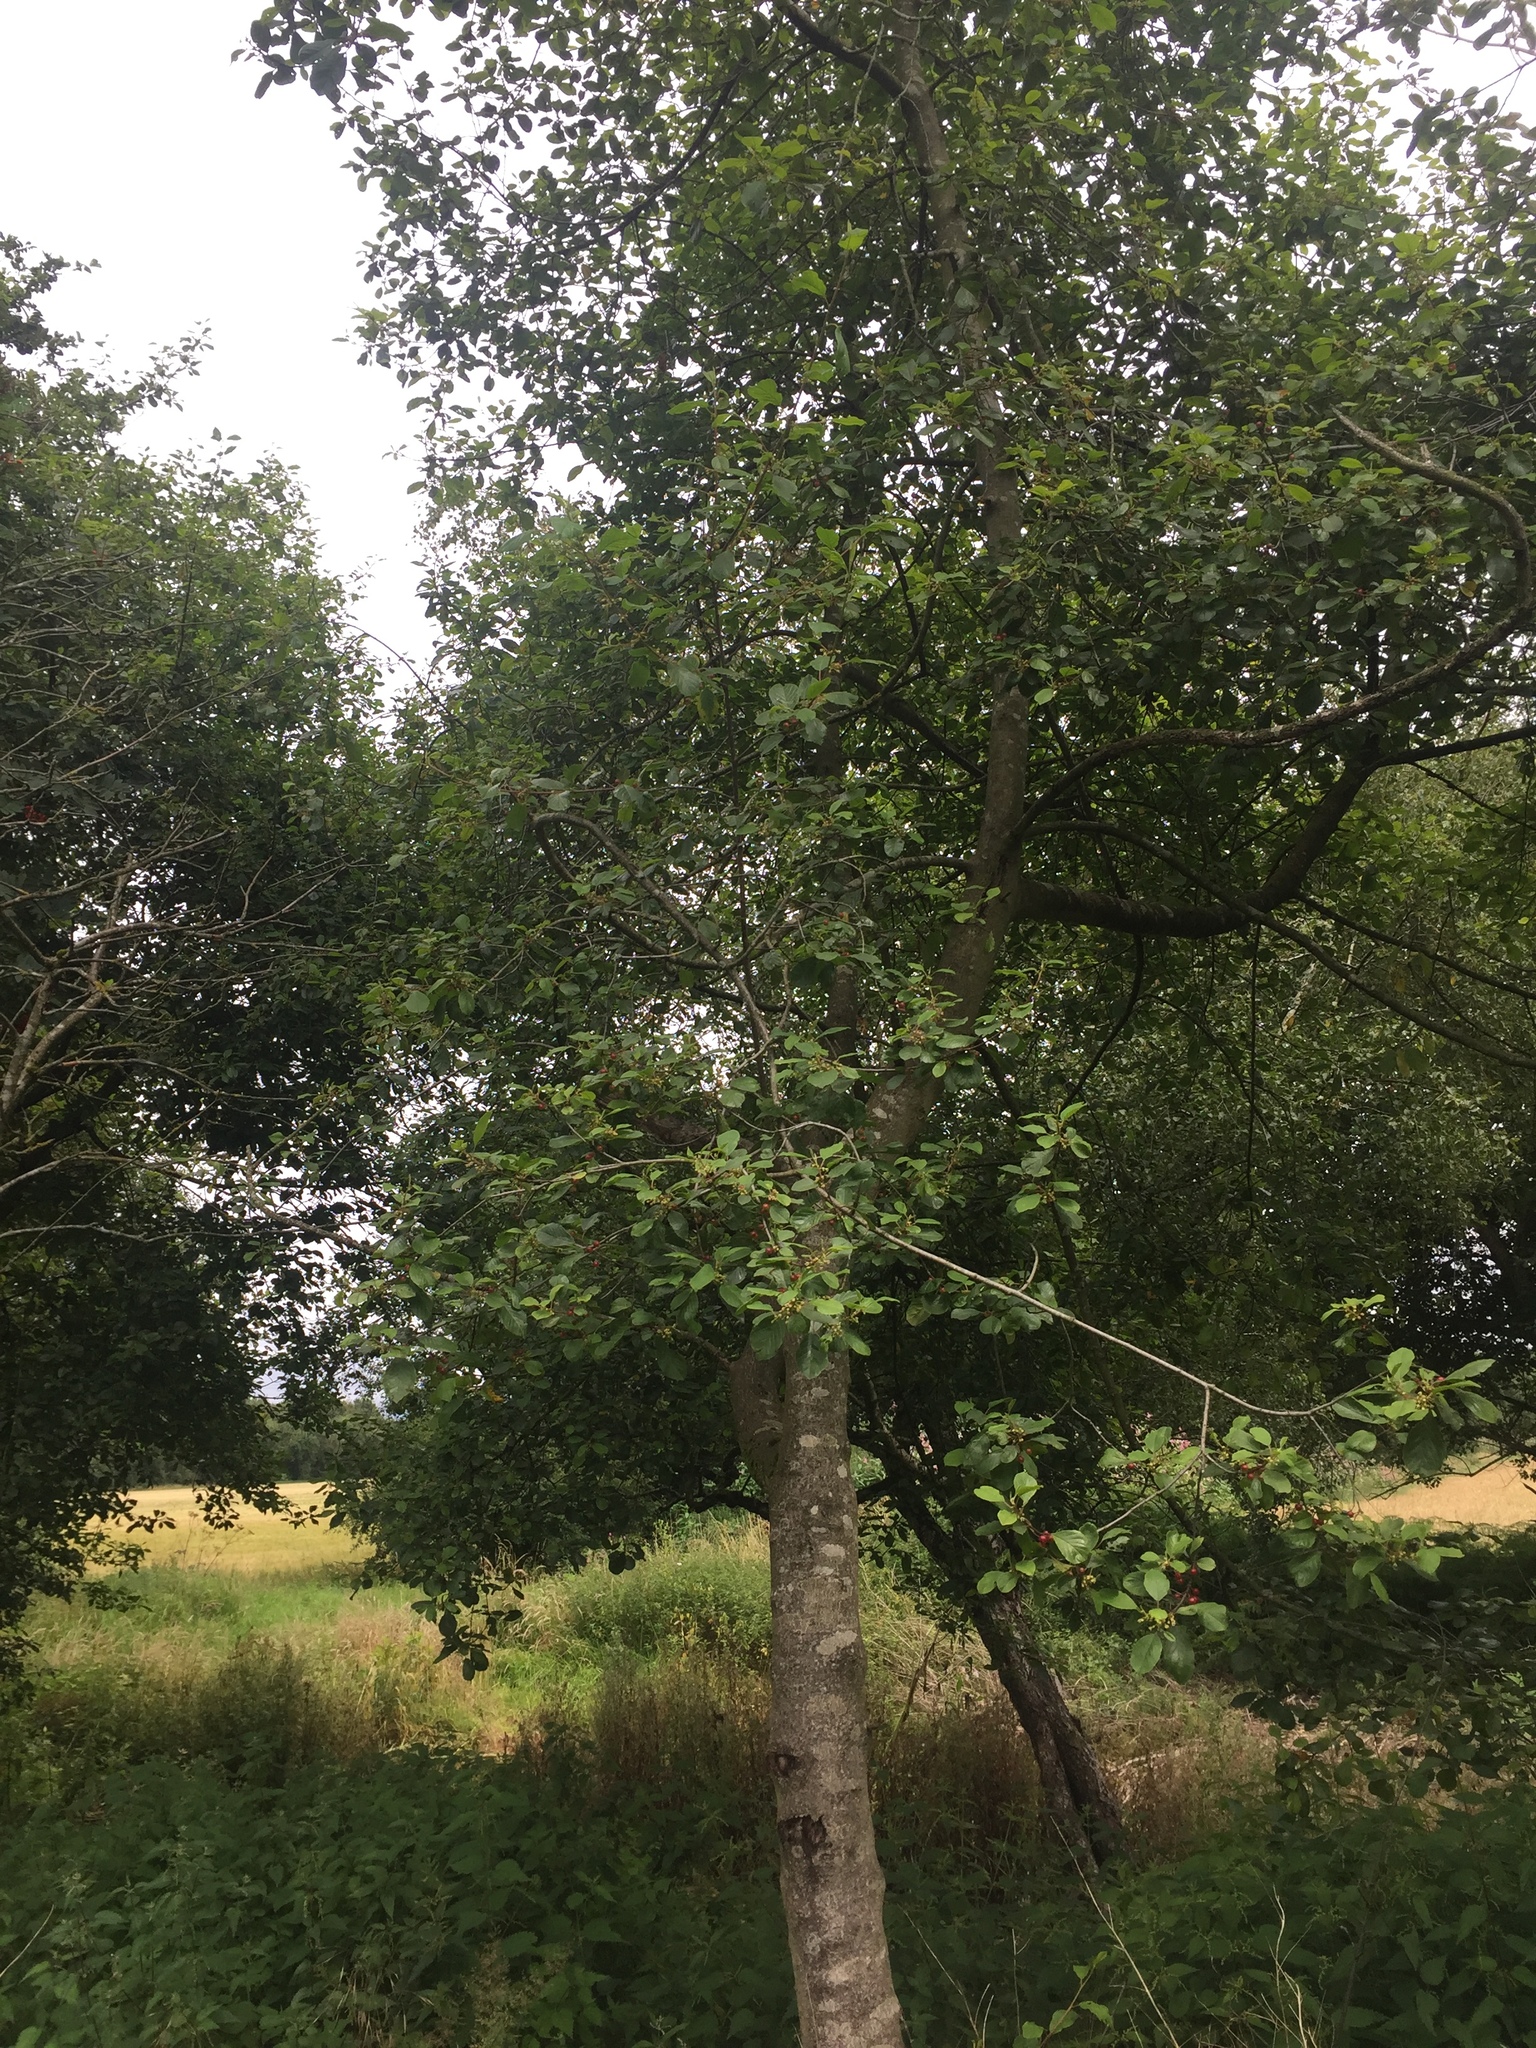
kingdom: Plantae
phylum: Tracheophyta
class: Magnoliopsida
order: Rosales
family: Rhamnaceae
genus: Frangula
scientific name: Frangula alnus
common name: Alder buckthorn
